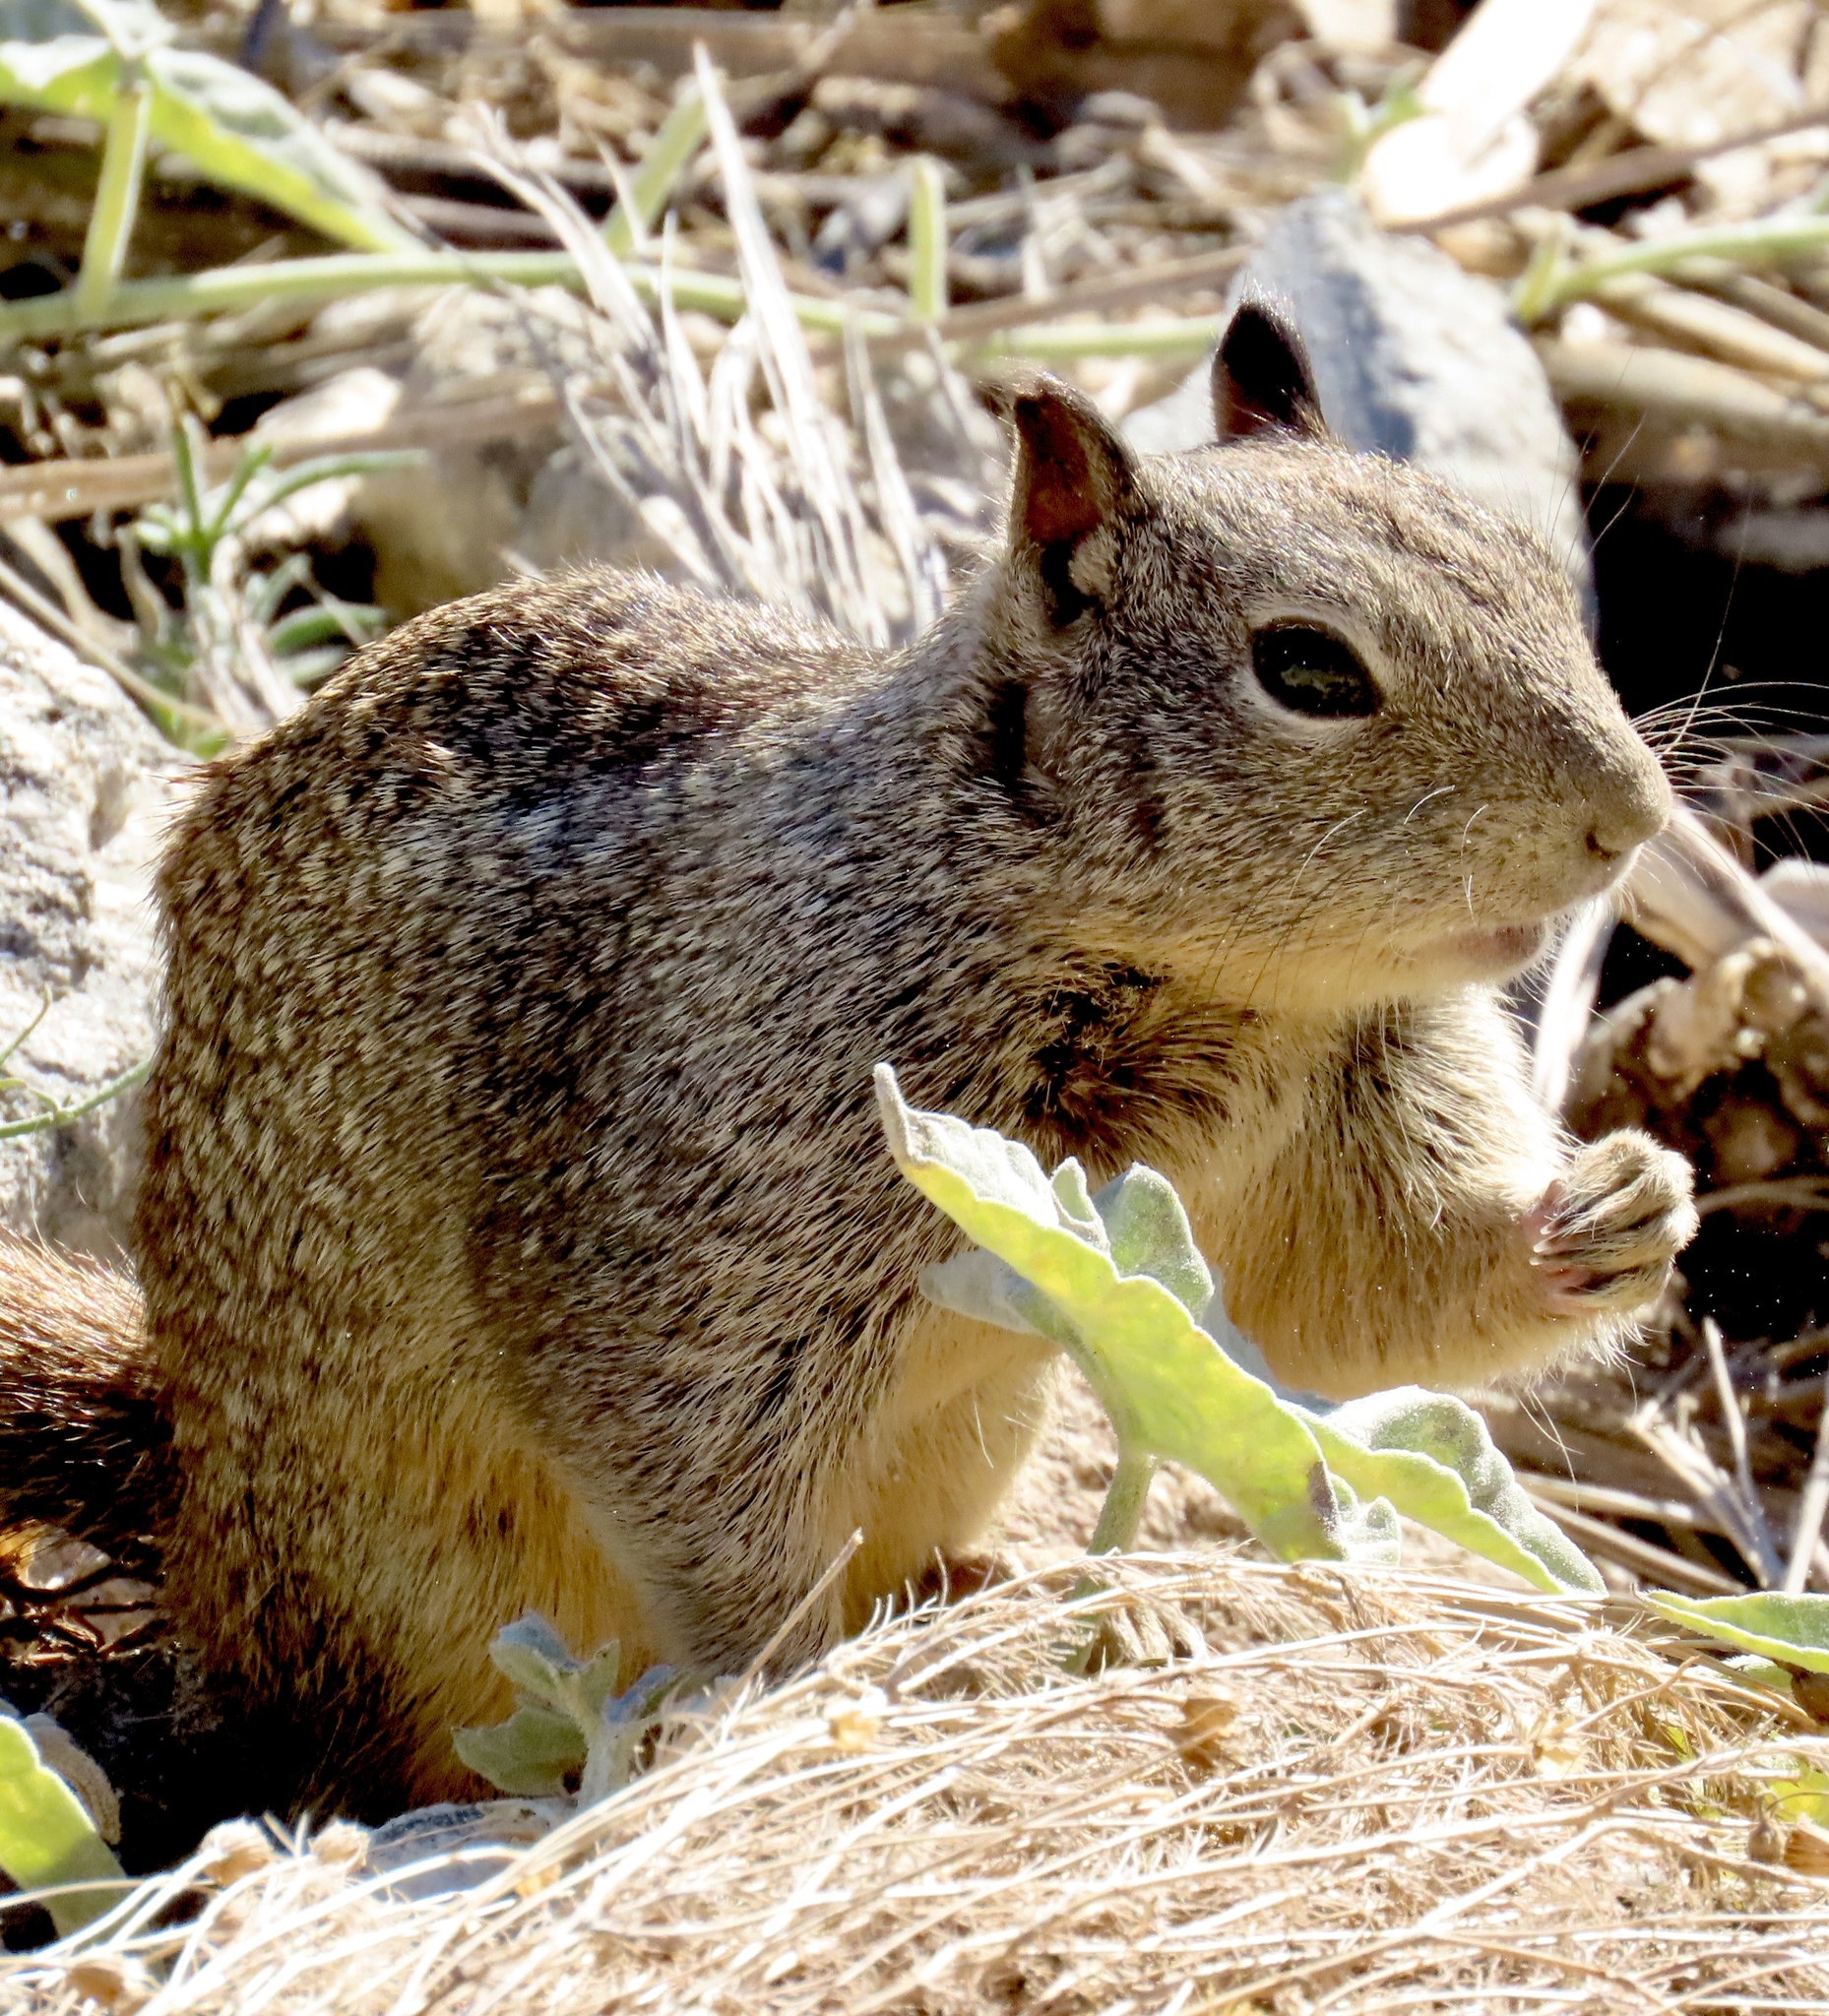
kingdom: Animalia
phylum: Chordata
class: Mammalia
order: Rodentia
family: Sciuridae
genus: Otospermophilus
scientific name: Otospermophilus beecheyi
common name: California ground squirrel
